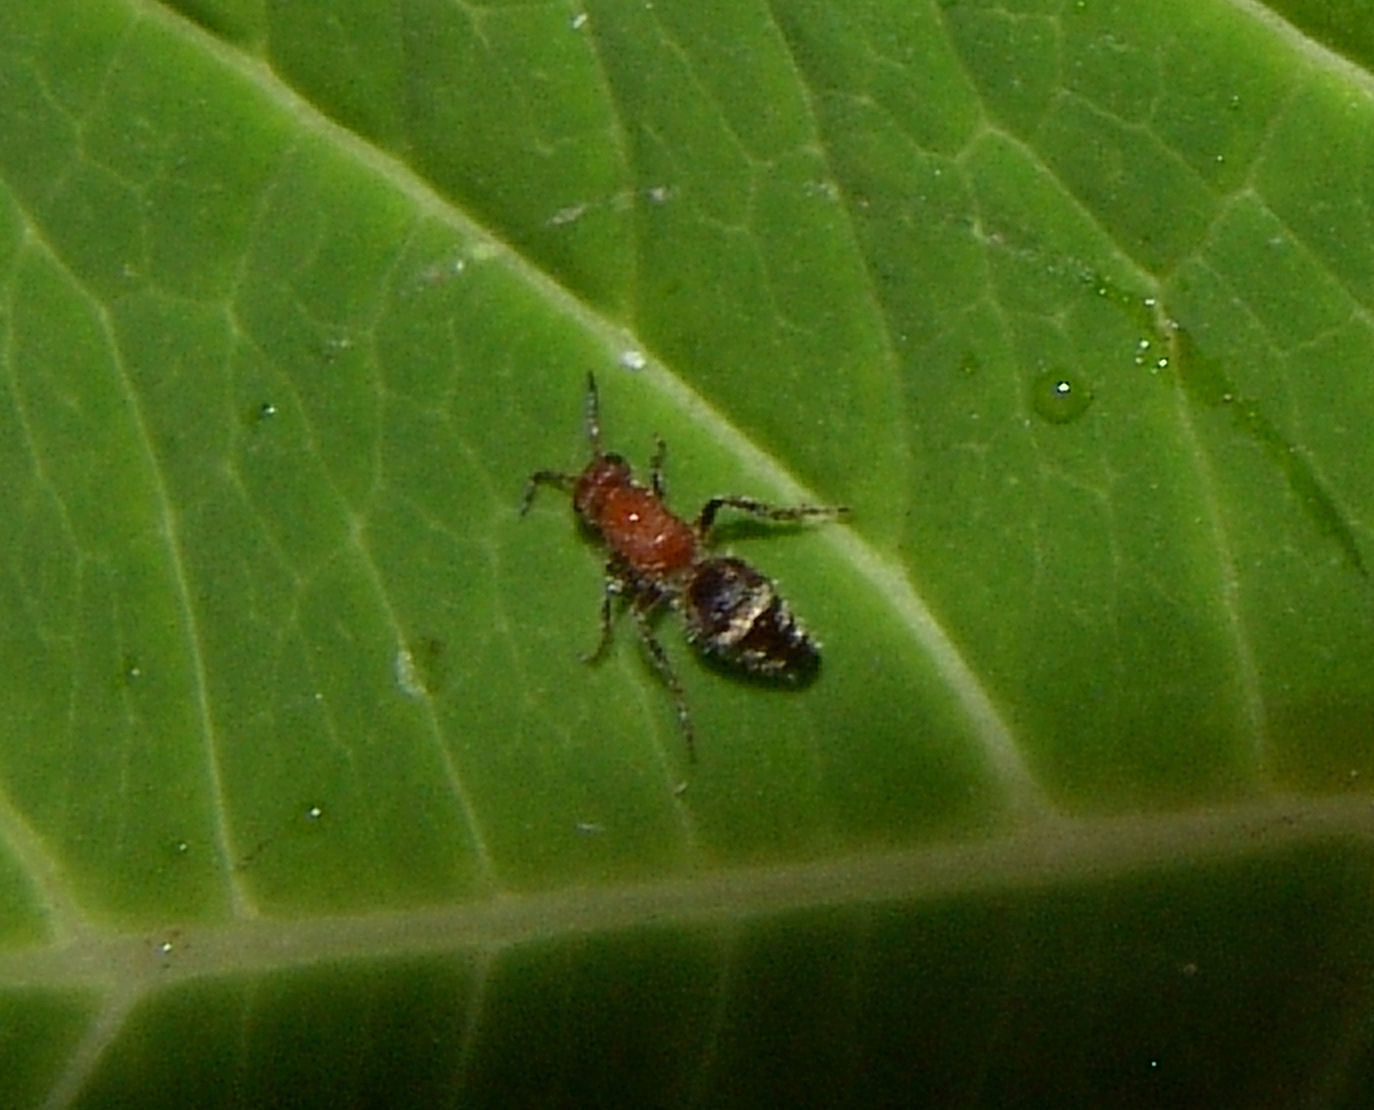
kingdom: Animalia
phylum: Arthropoda
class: Insecta
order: Hymenoptera
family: Mutillidae
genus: Timulla
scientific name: Timulla
